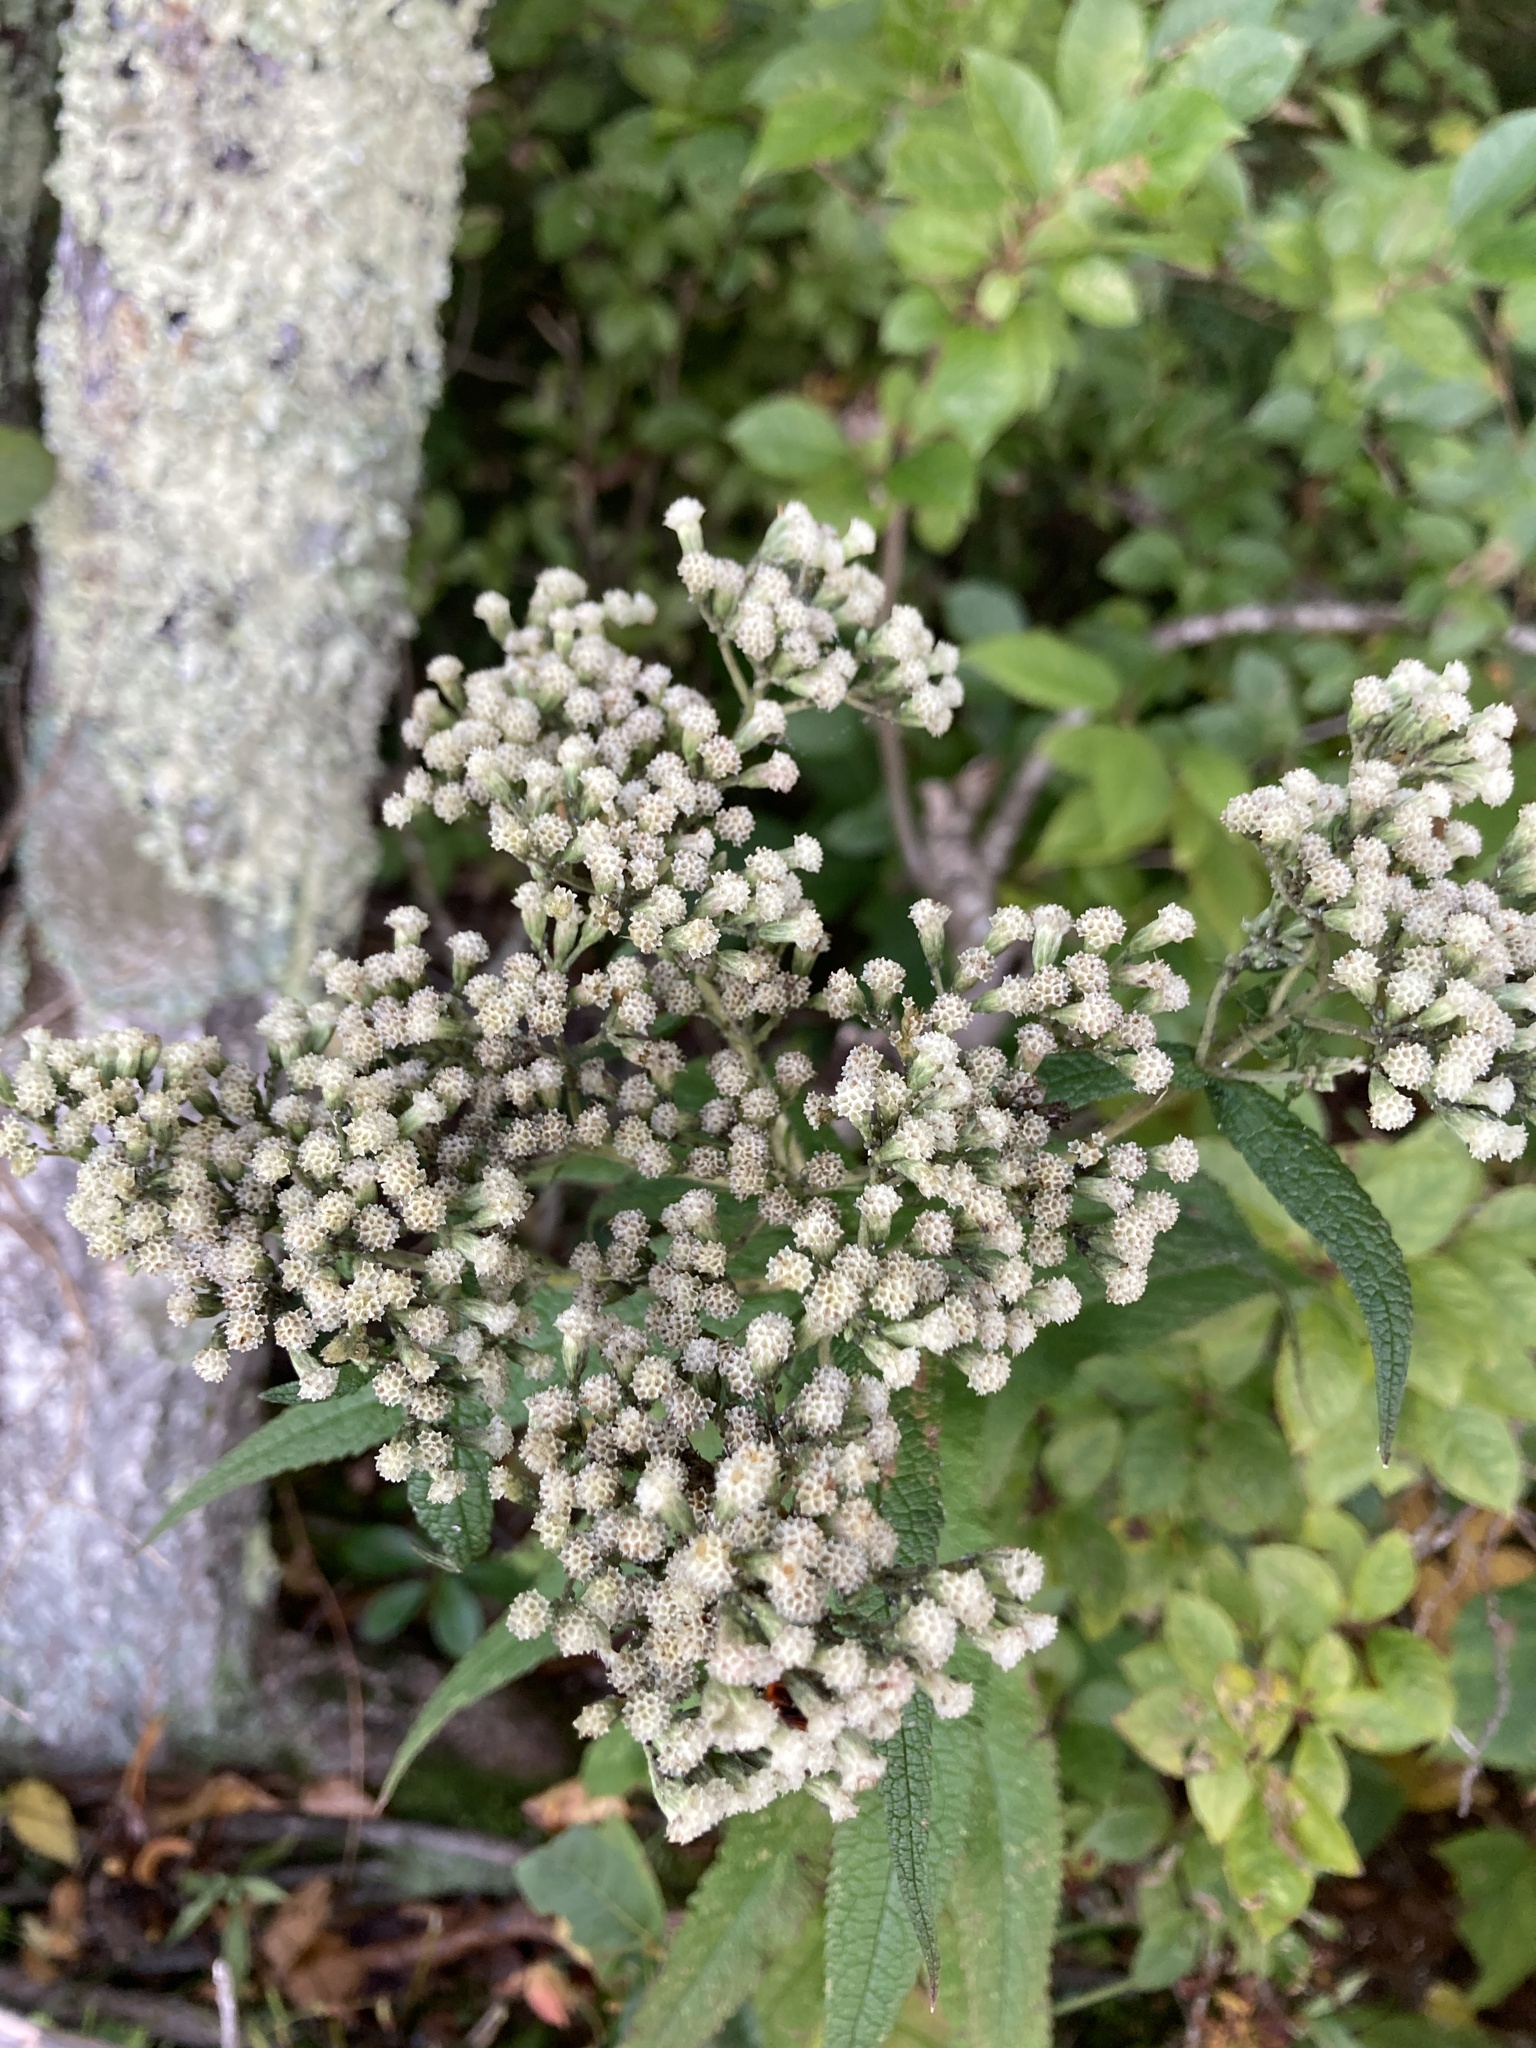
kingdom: Plantae
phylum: Tracheophyta
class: Magnoliopsida
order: Asterales
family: Asteraceae
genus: Eupatorium
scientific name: Eupatorium perfoliatum
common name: Boneset
